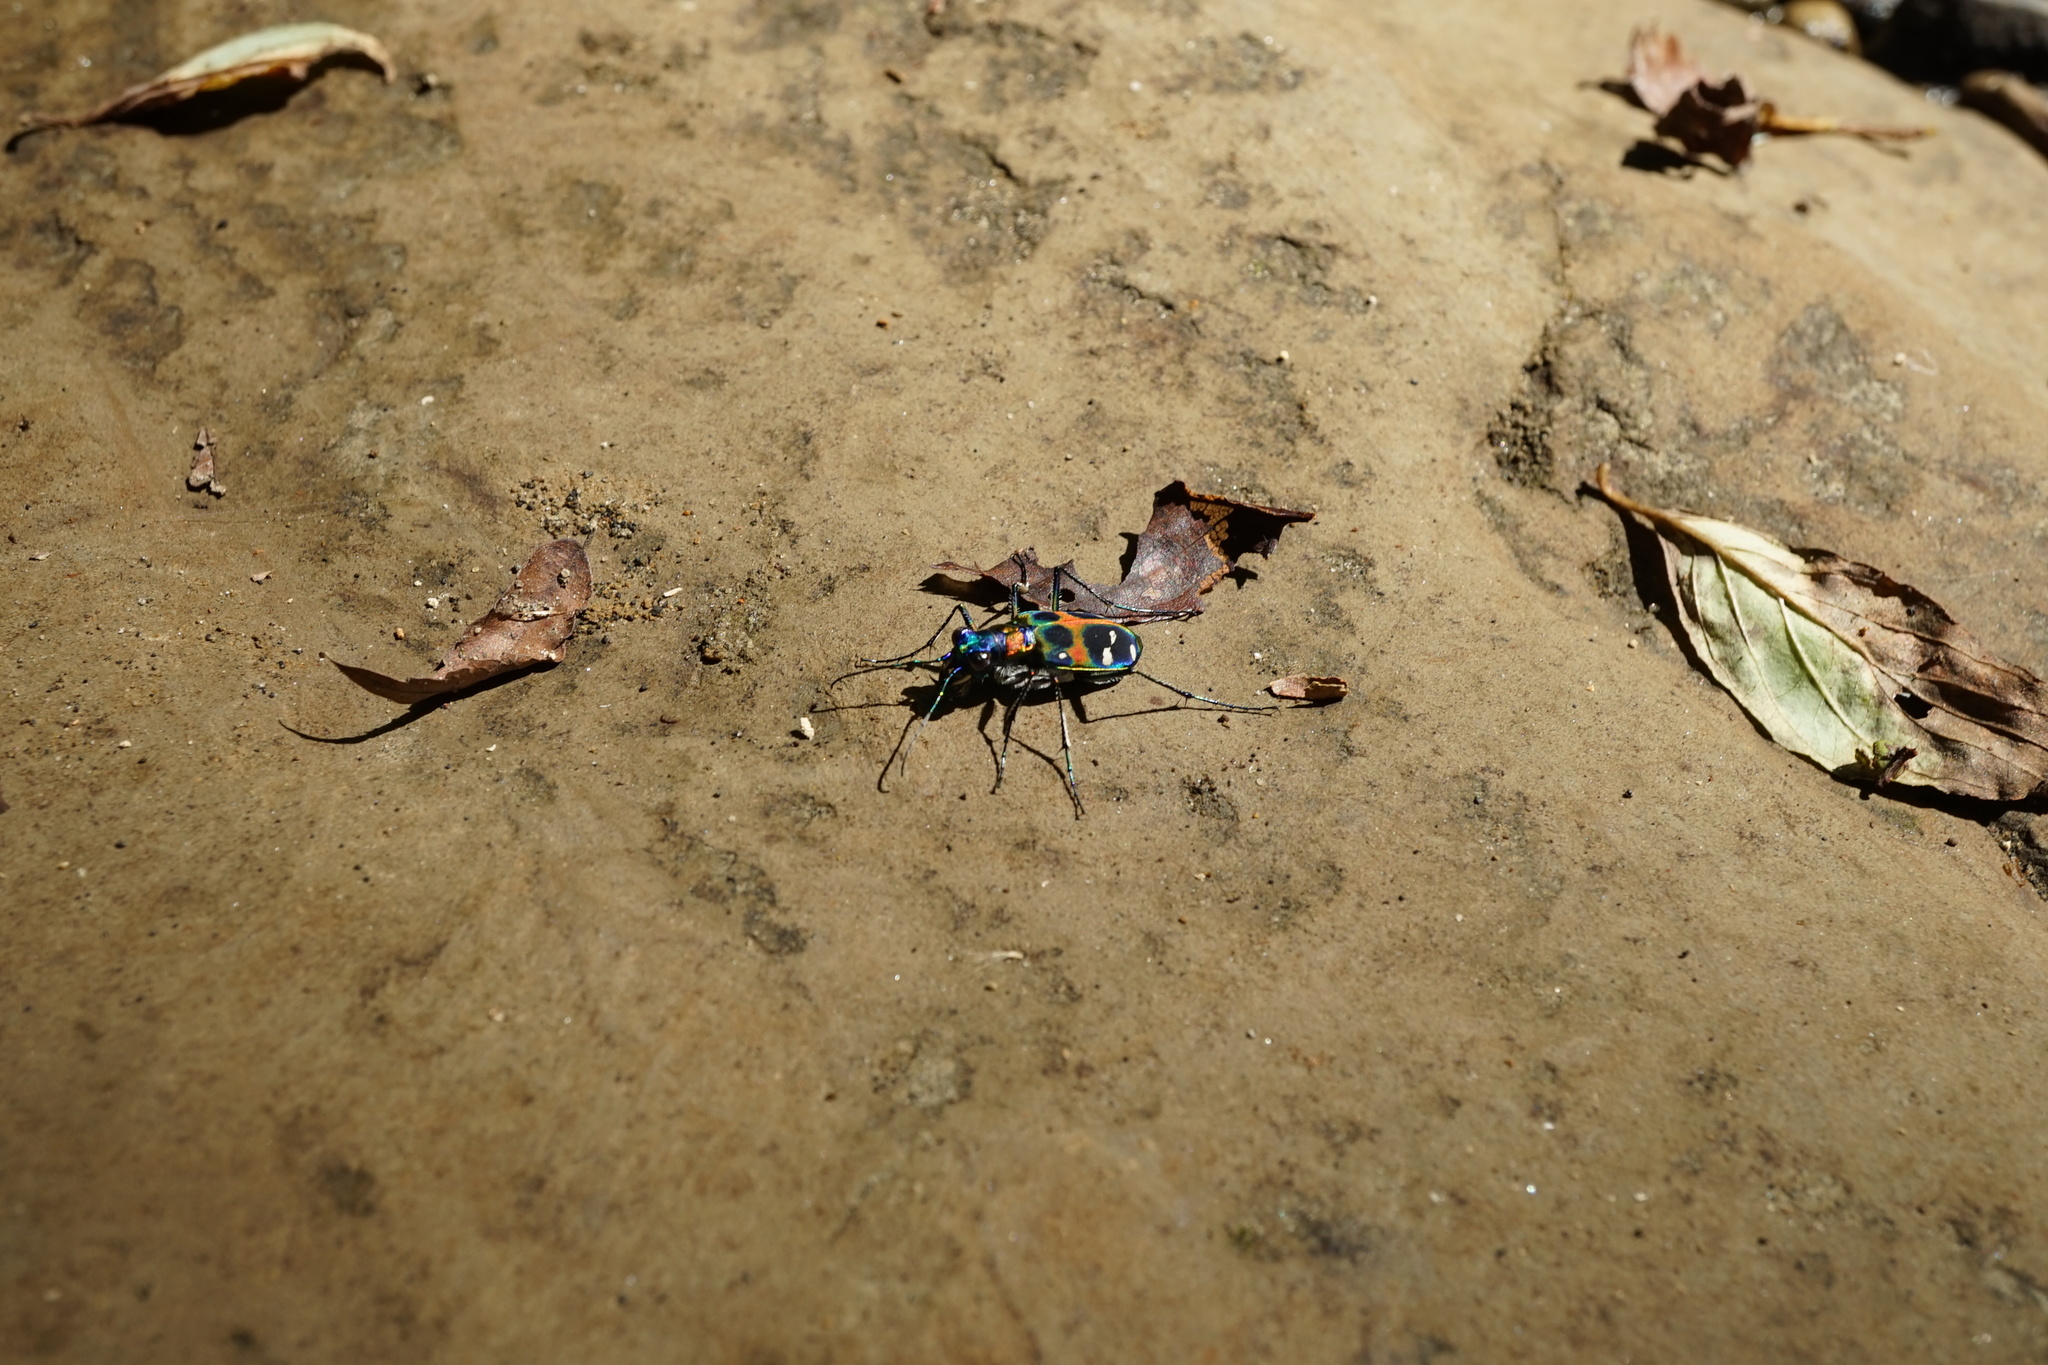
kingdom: Animalia
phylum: Arthropoda
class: Insecta
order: Coleoptera
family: Carabidae
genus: Cicindela
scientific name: Cicindela chinensis
